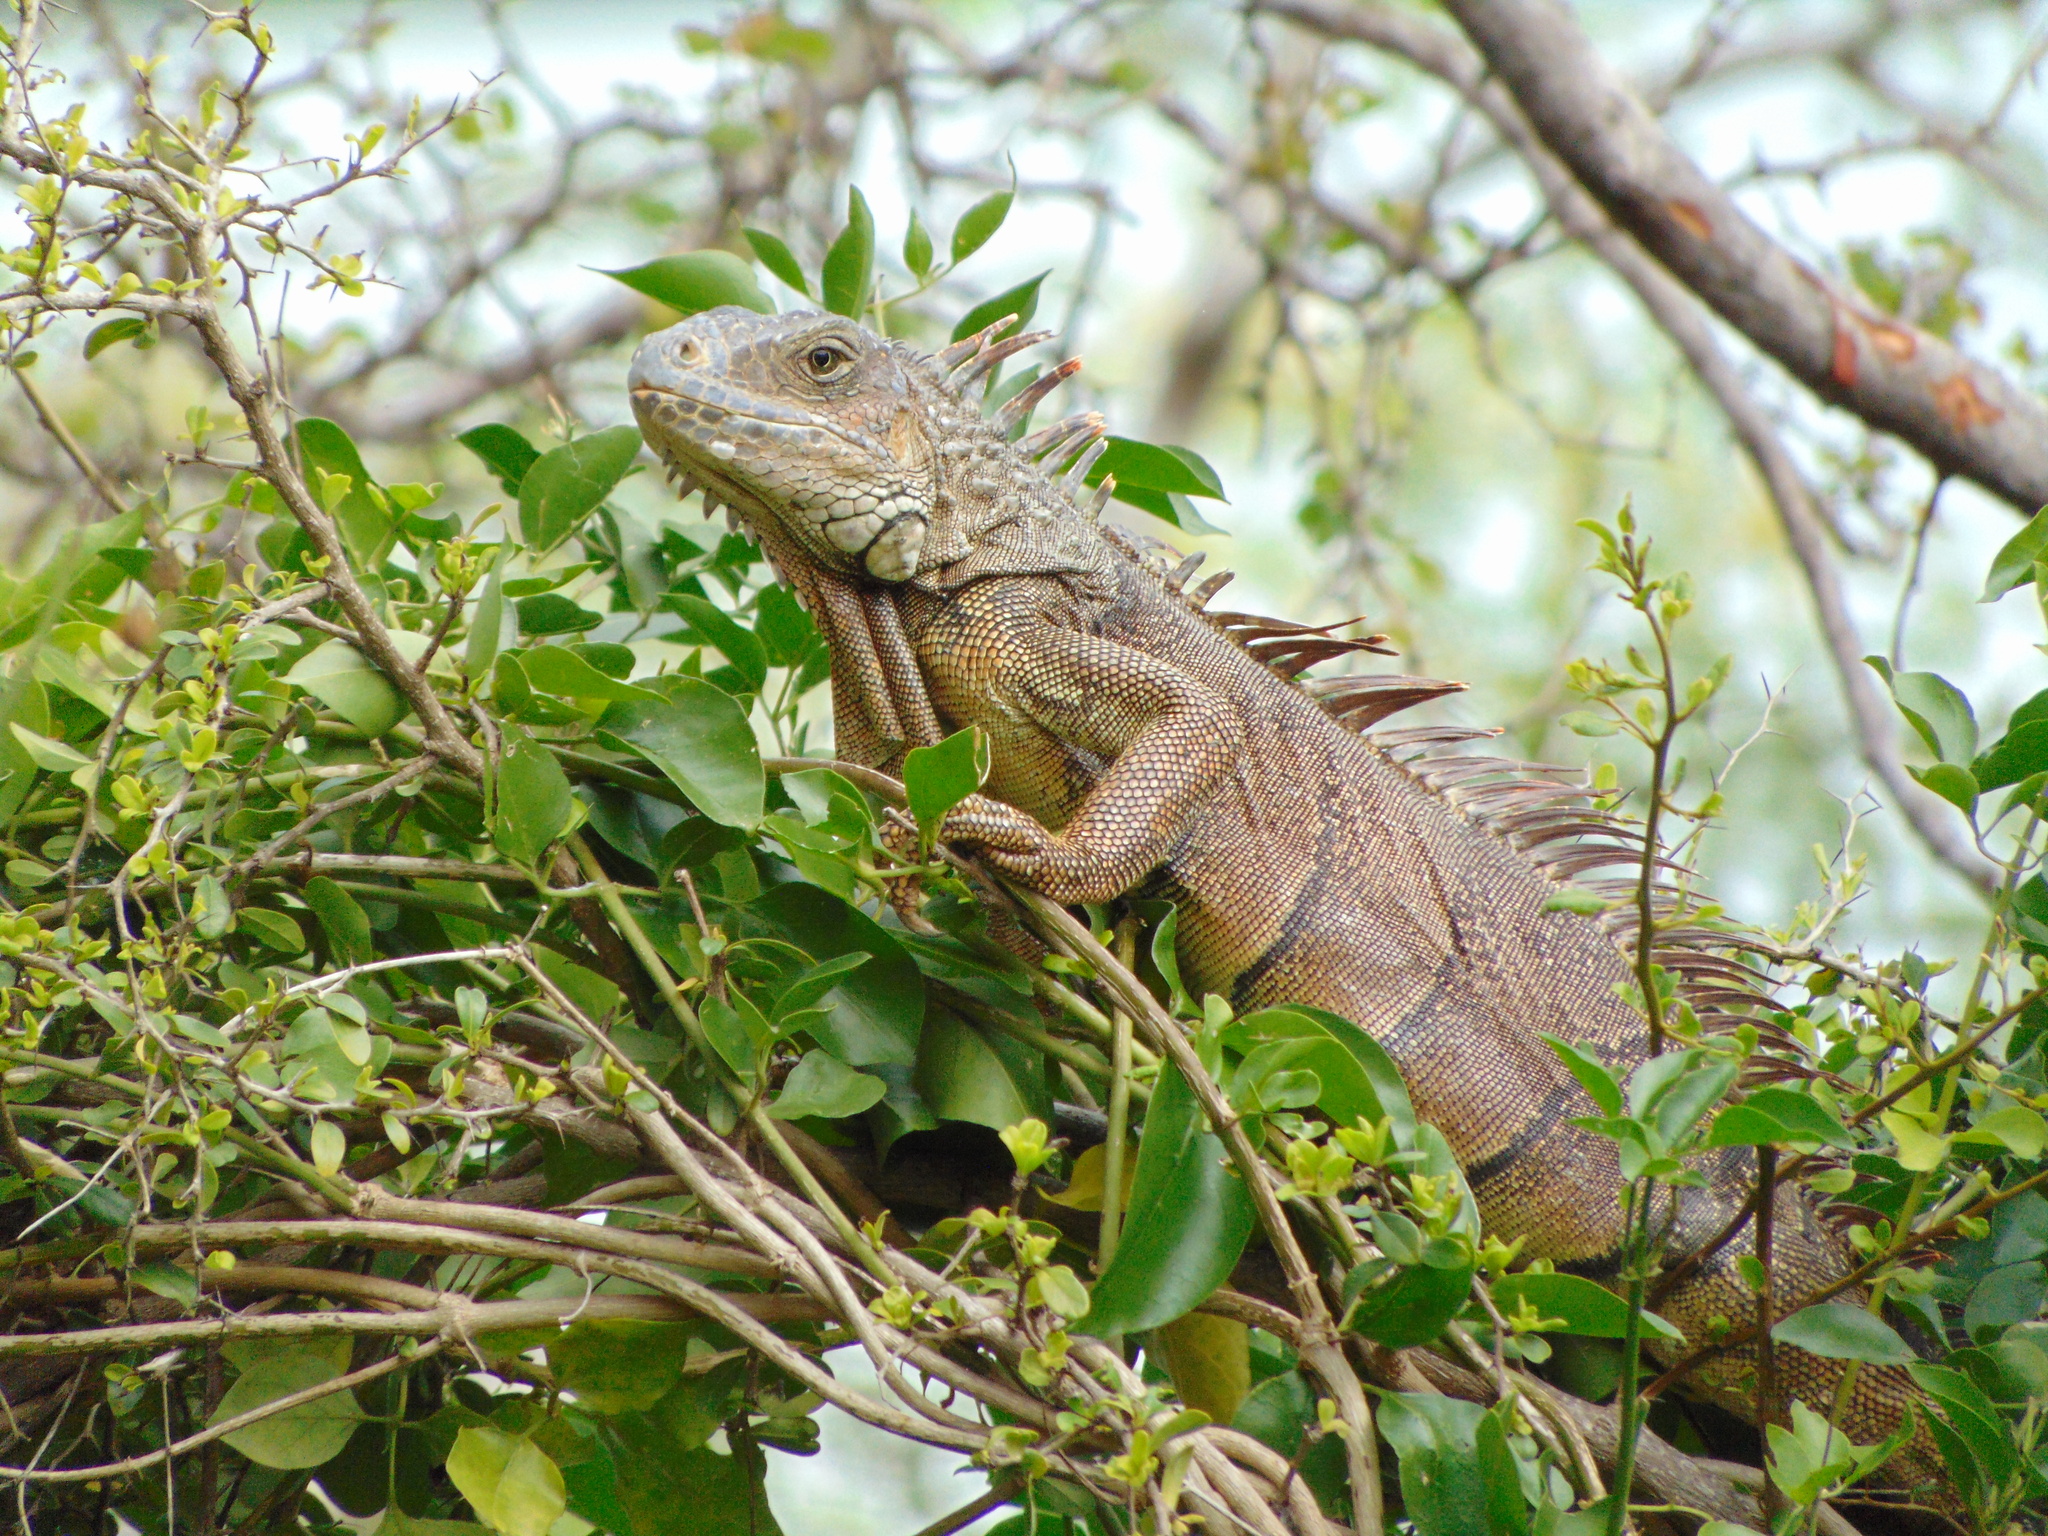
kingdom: Animalia
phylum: Chordata
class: Squamata
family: Iguanidae
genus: Iguana
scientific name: Iguana iguana
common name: Green iguana
